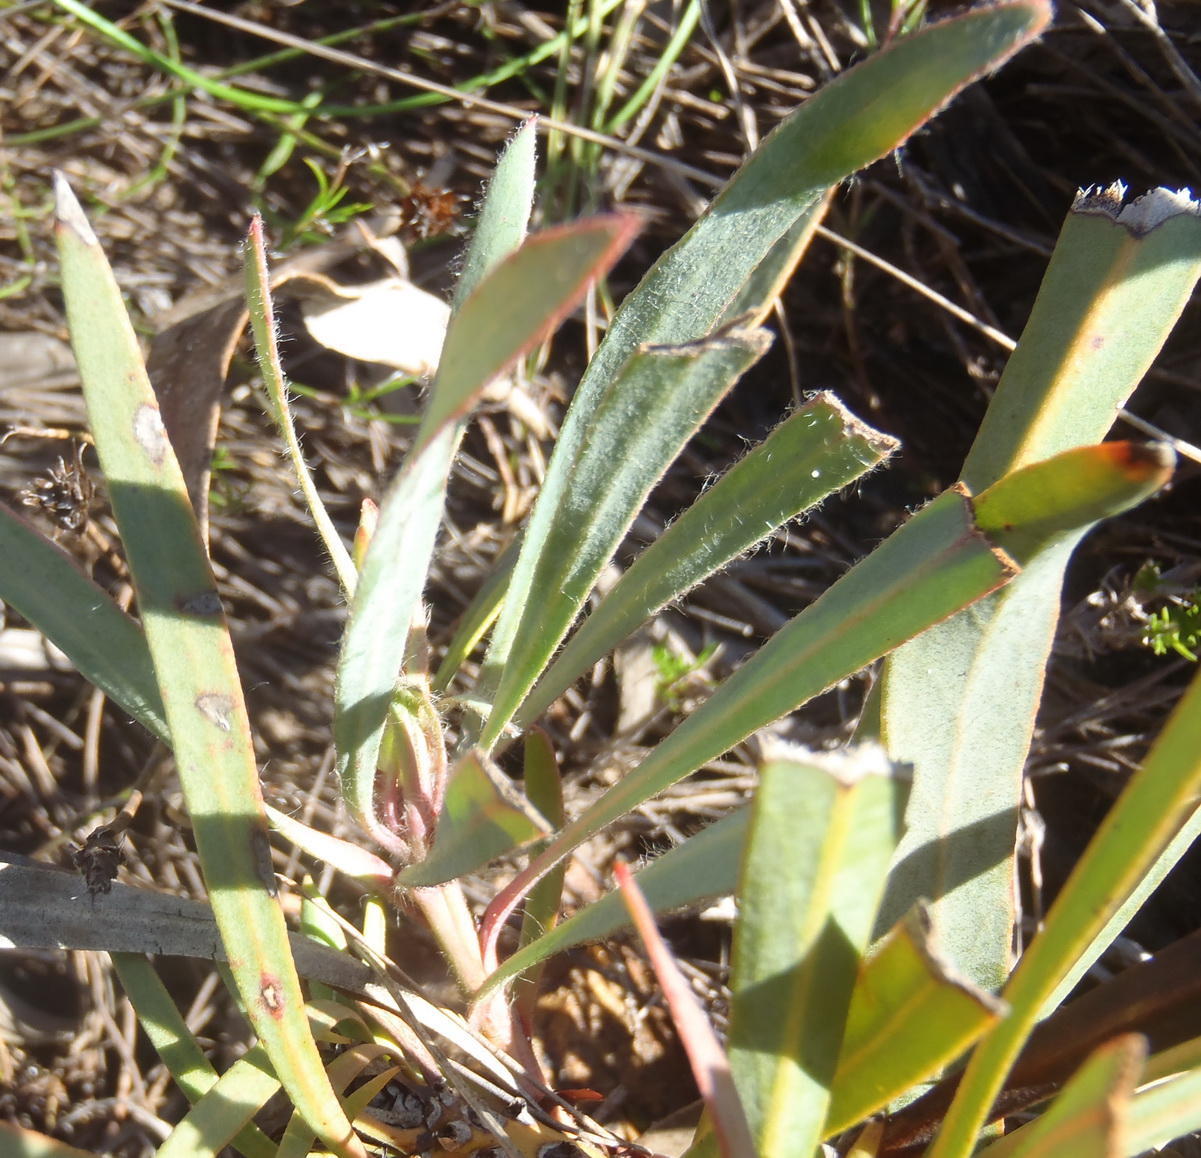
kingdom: Plantae
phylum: Tracheophyta
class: Magnoliopsida
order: Proteales
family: Proteaceae
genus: Protea
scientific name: Protea tenax
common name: Tenacious sugarbush
